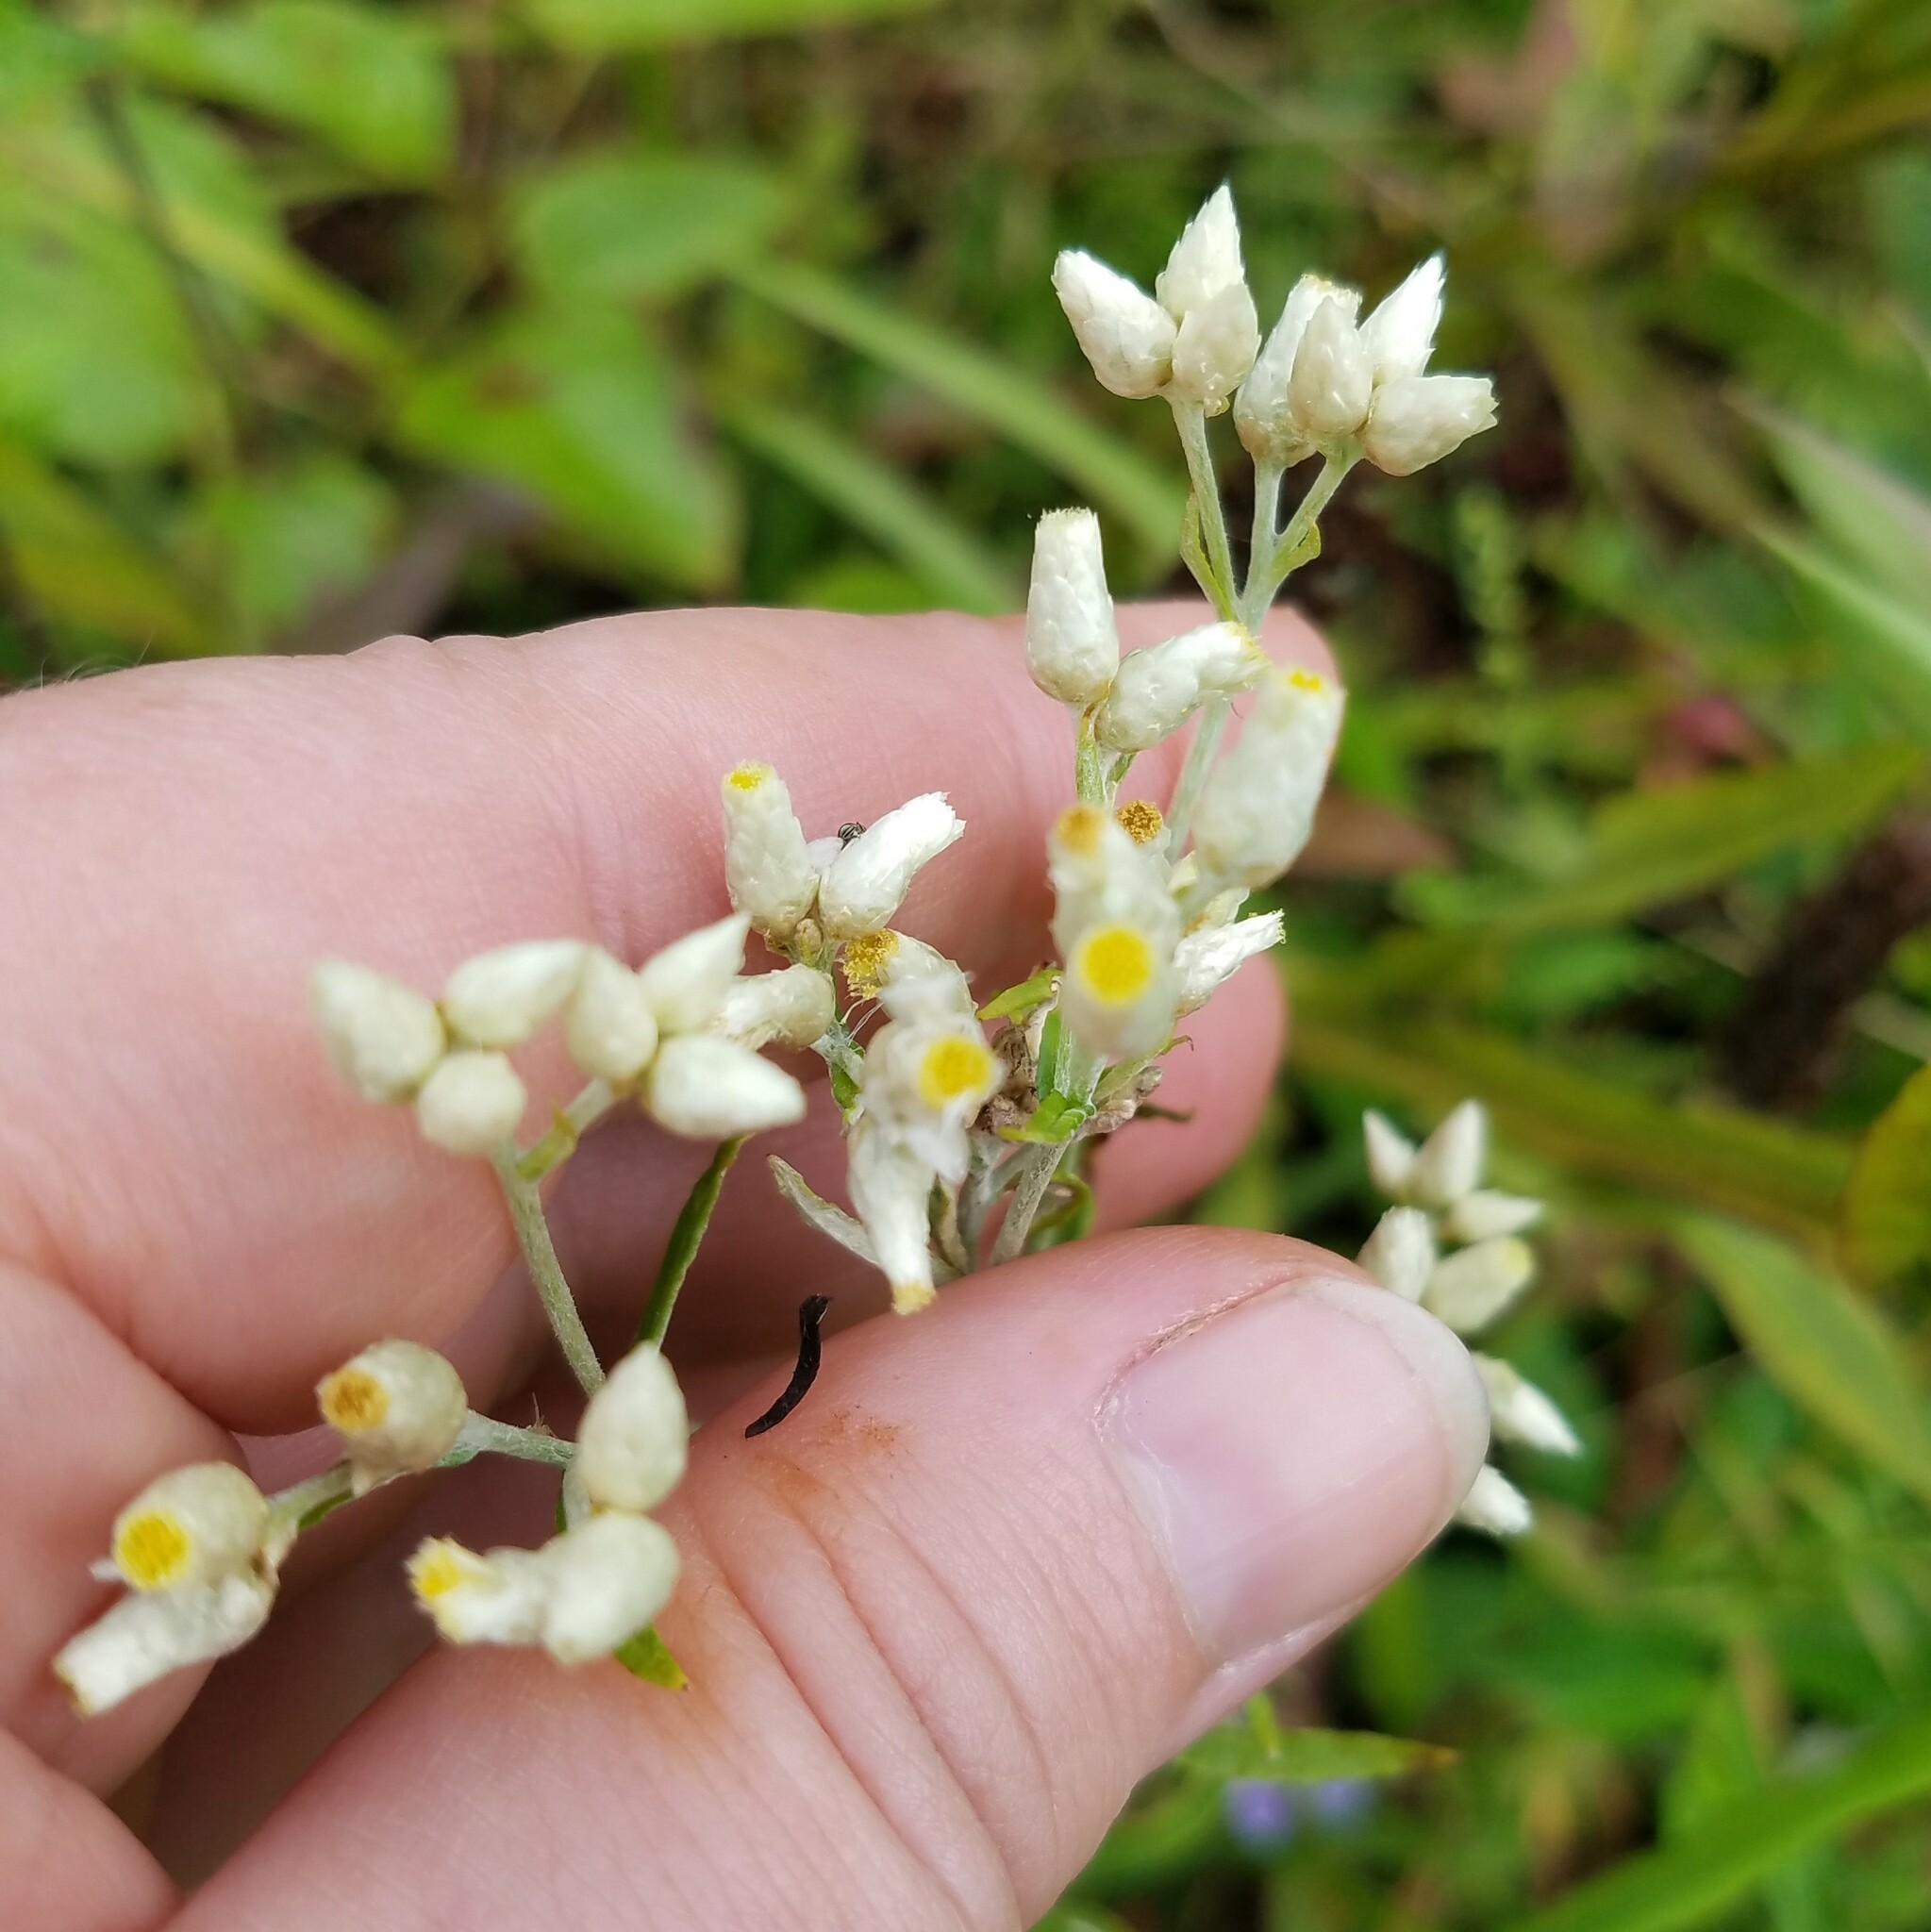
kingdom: Plantae
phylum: Tracheophyta
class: Magnoliopsida
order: Asterales
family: Asteraceae
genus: Pseudognaphalium
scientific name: Pseudognaphalium obtusifolium
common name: Eastern rabbit-tobacco
